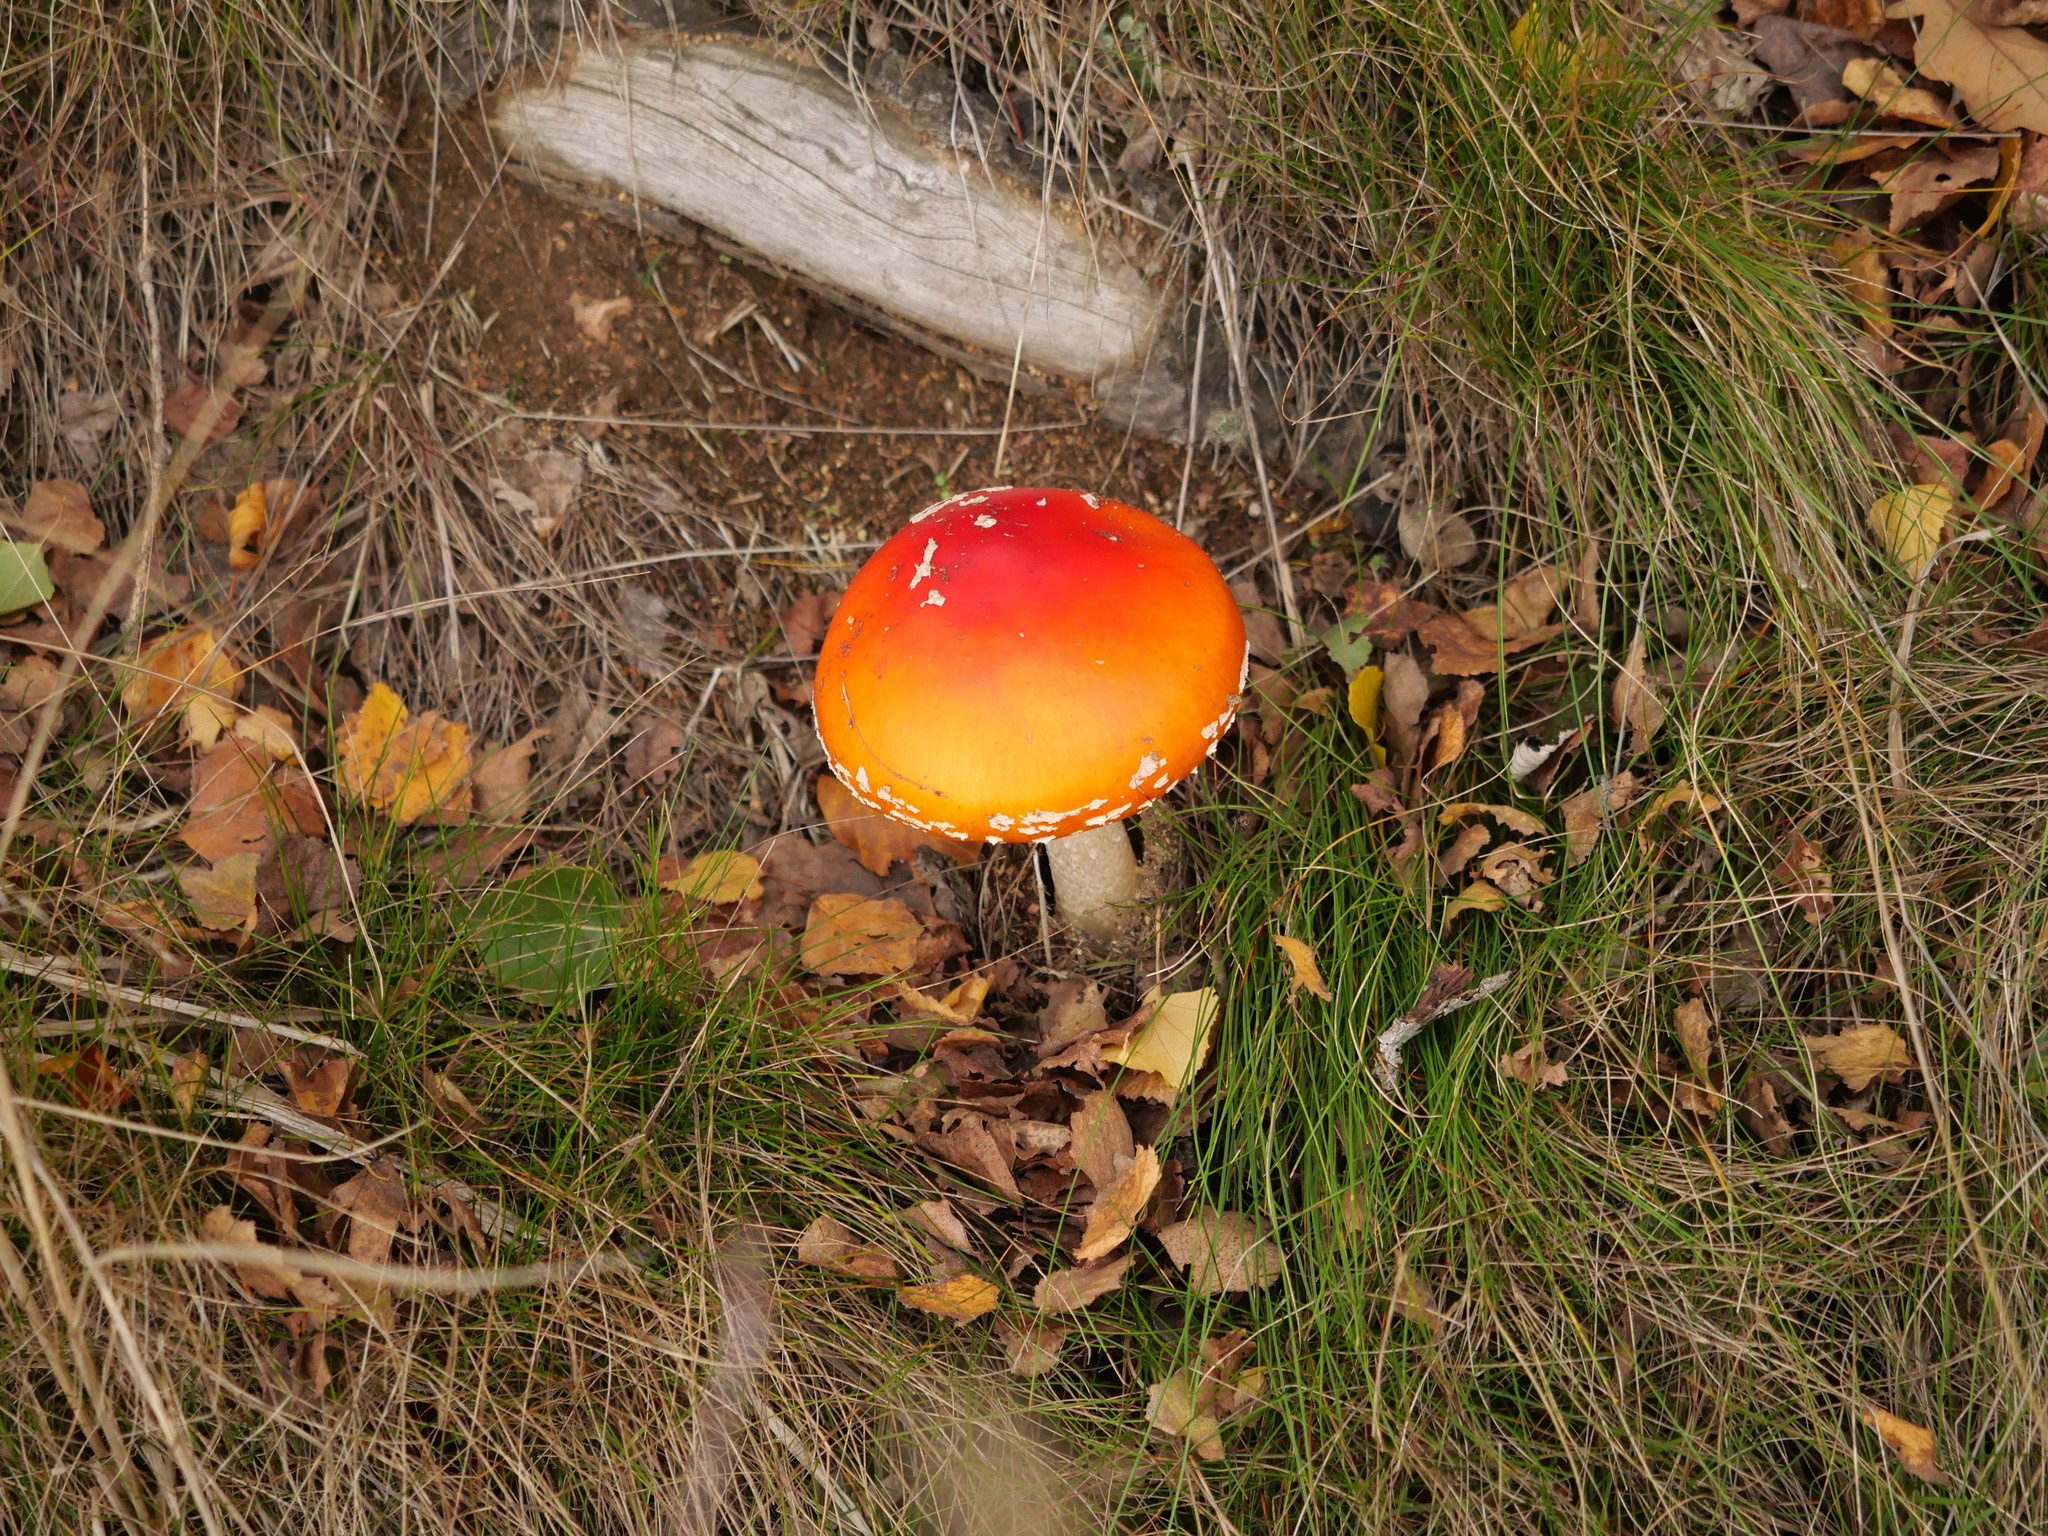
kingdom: Fungi
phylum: Basidiomycota
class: Agaricomycetes
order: Agaricales
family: Amanitaceae
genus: Amanita
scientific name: Amanita muscaria
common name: Fly agaric
